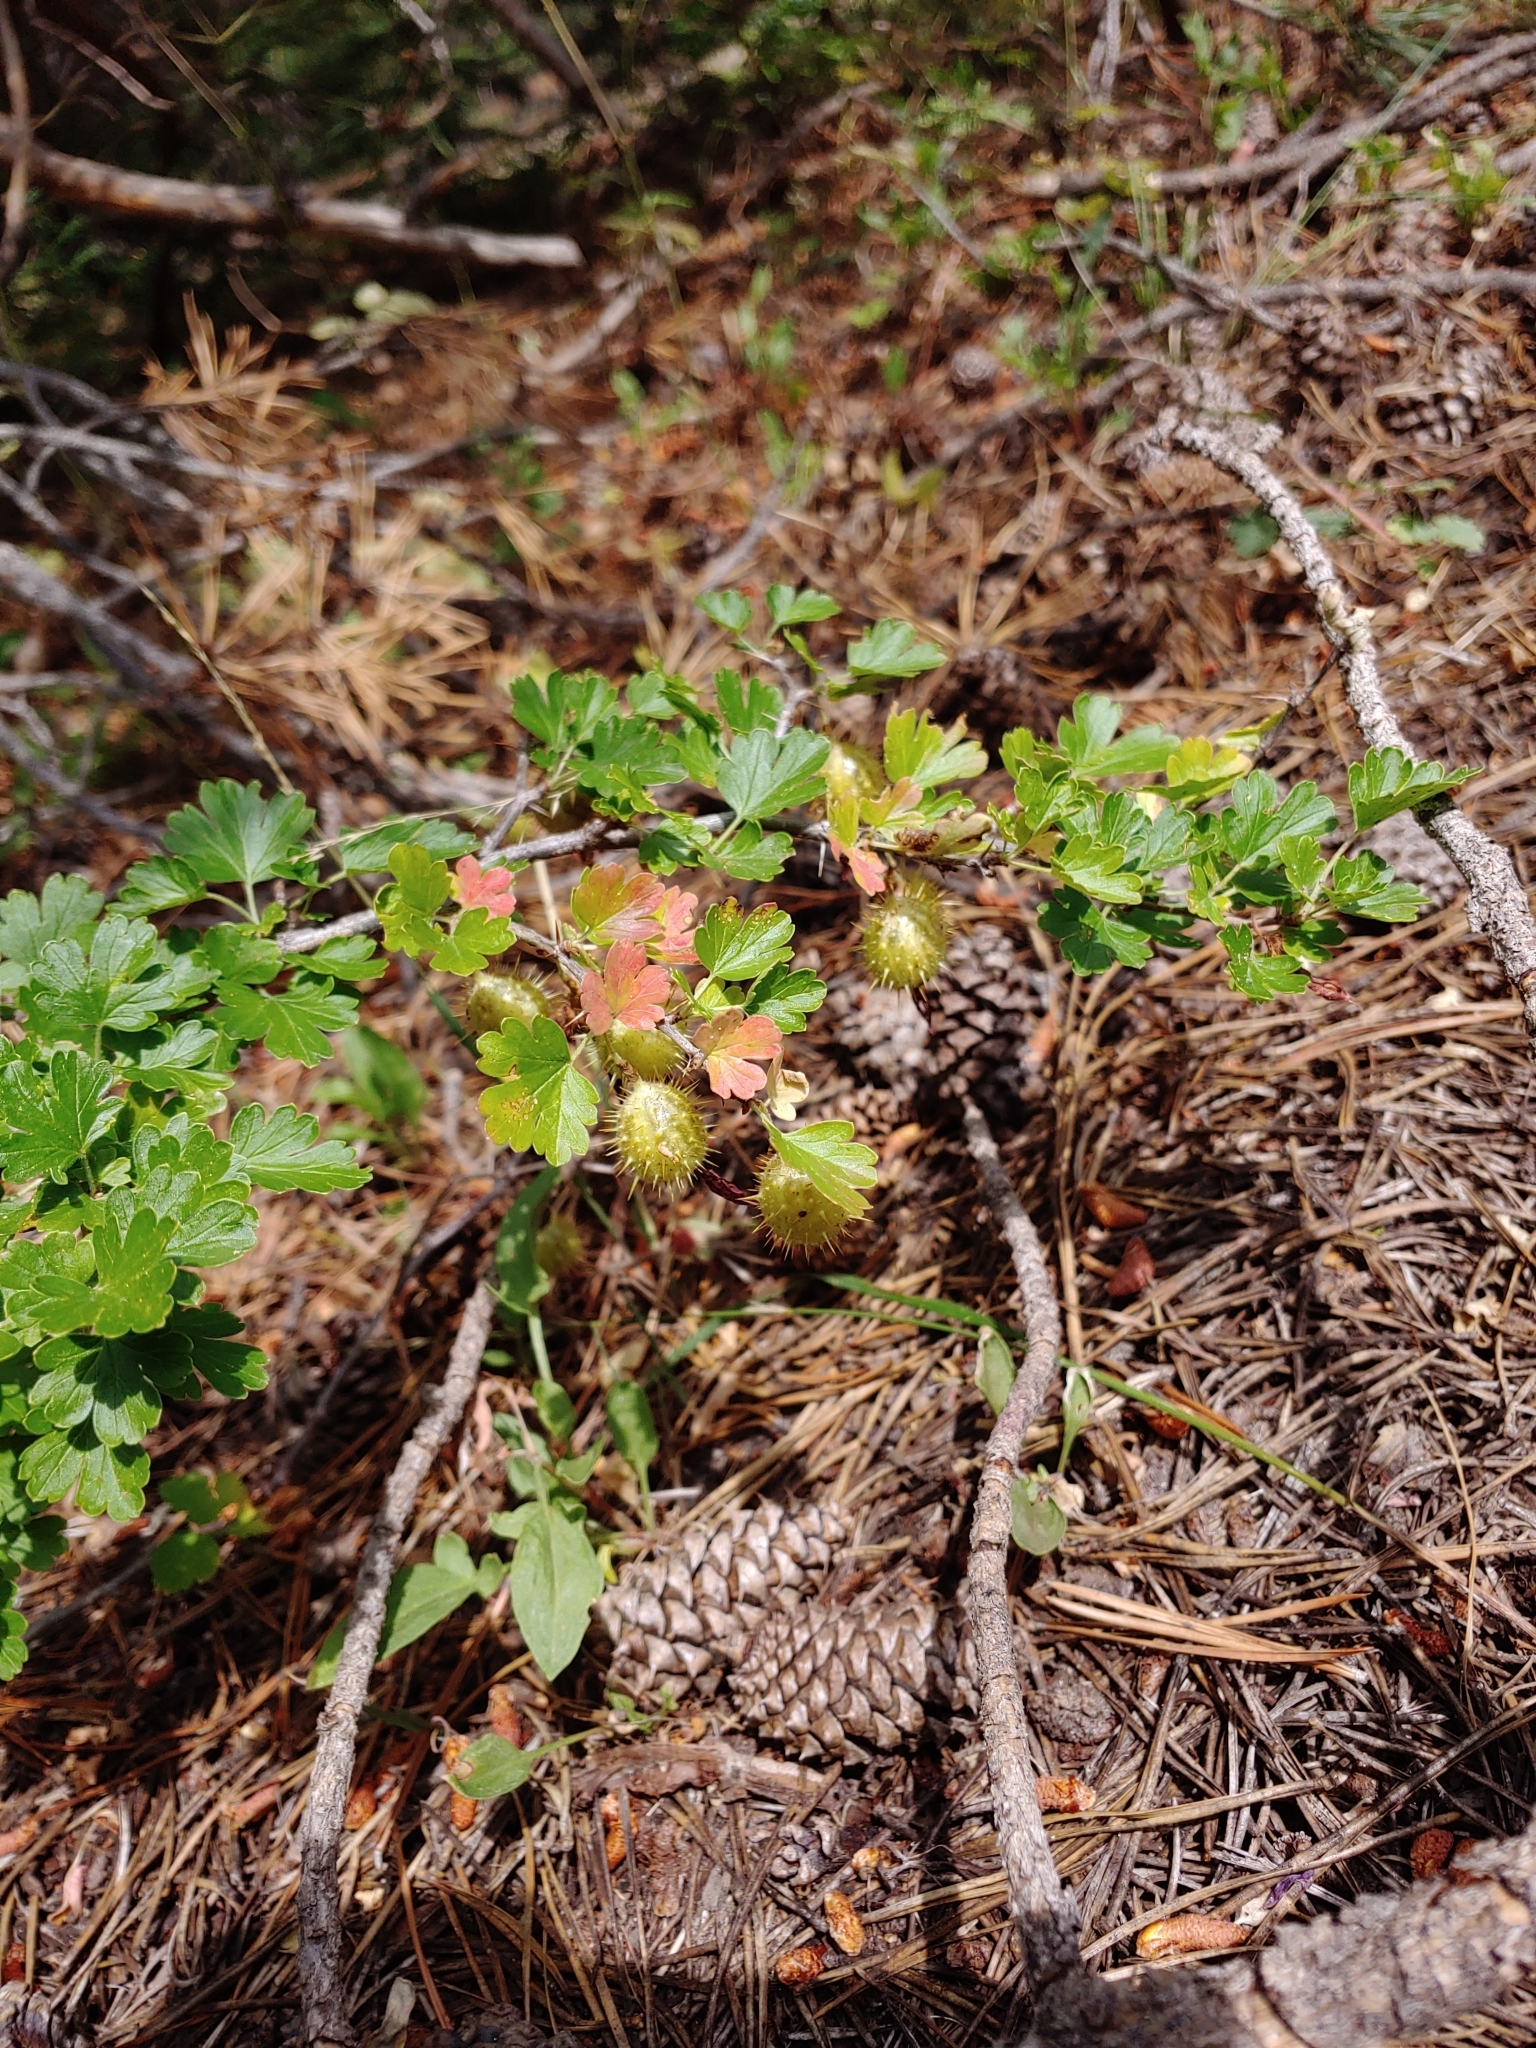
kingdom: Plantae
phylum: Tracheophyta
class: Magnoliopsida
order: Saxifragales
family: Grossulariaceae
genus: Ribes
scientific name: Ribes roezlii
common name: Sierra gooseberry
